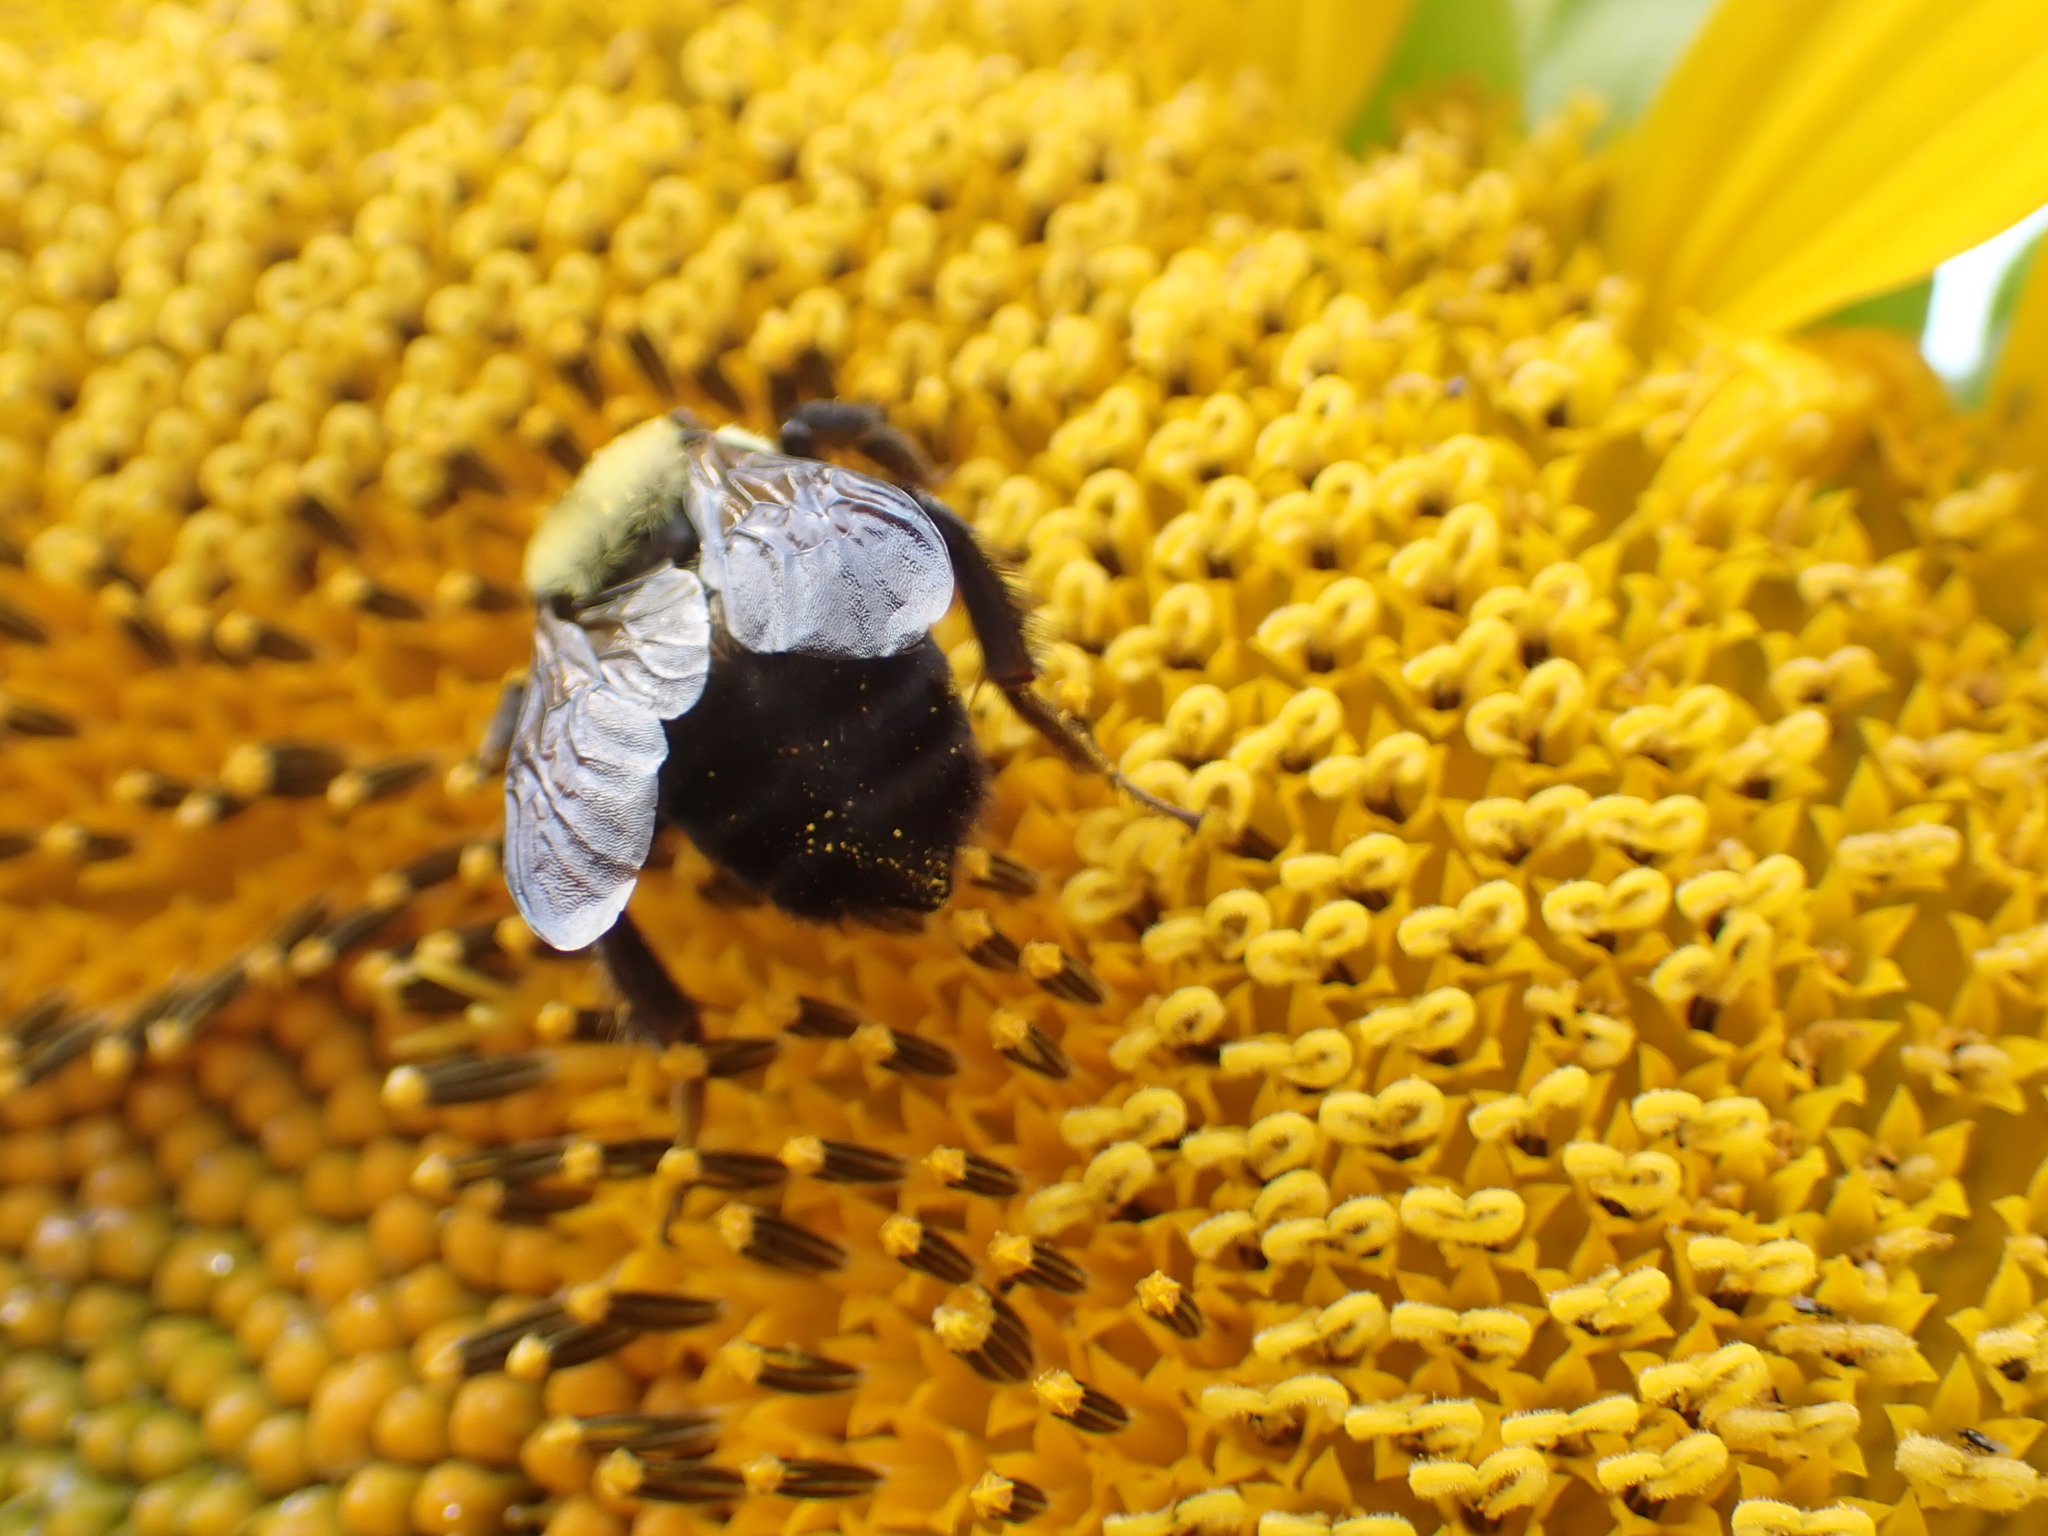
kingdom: Animalia
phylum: Arthropoda
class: Insecta
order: Hymenoptera
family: Apidae
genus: Bombus
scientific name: Bombus griseocollis
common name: Brown-belted bumble bee
